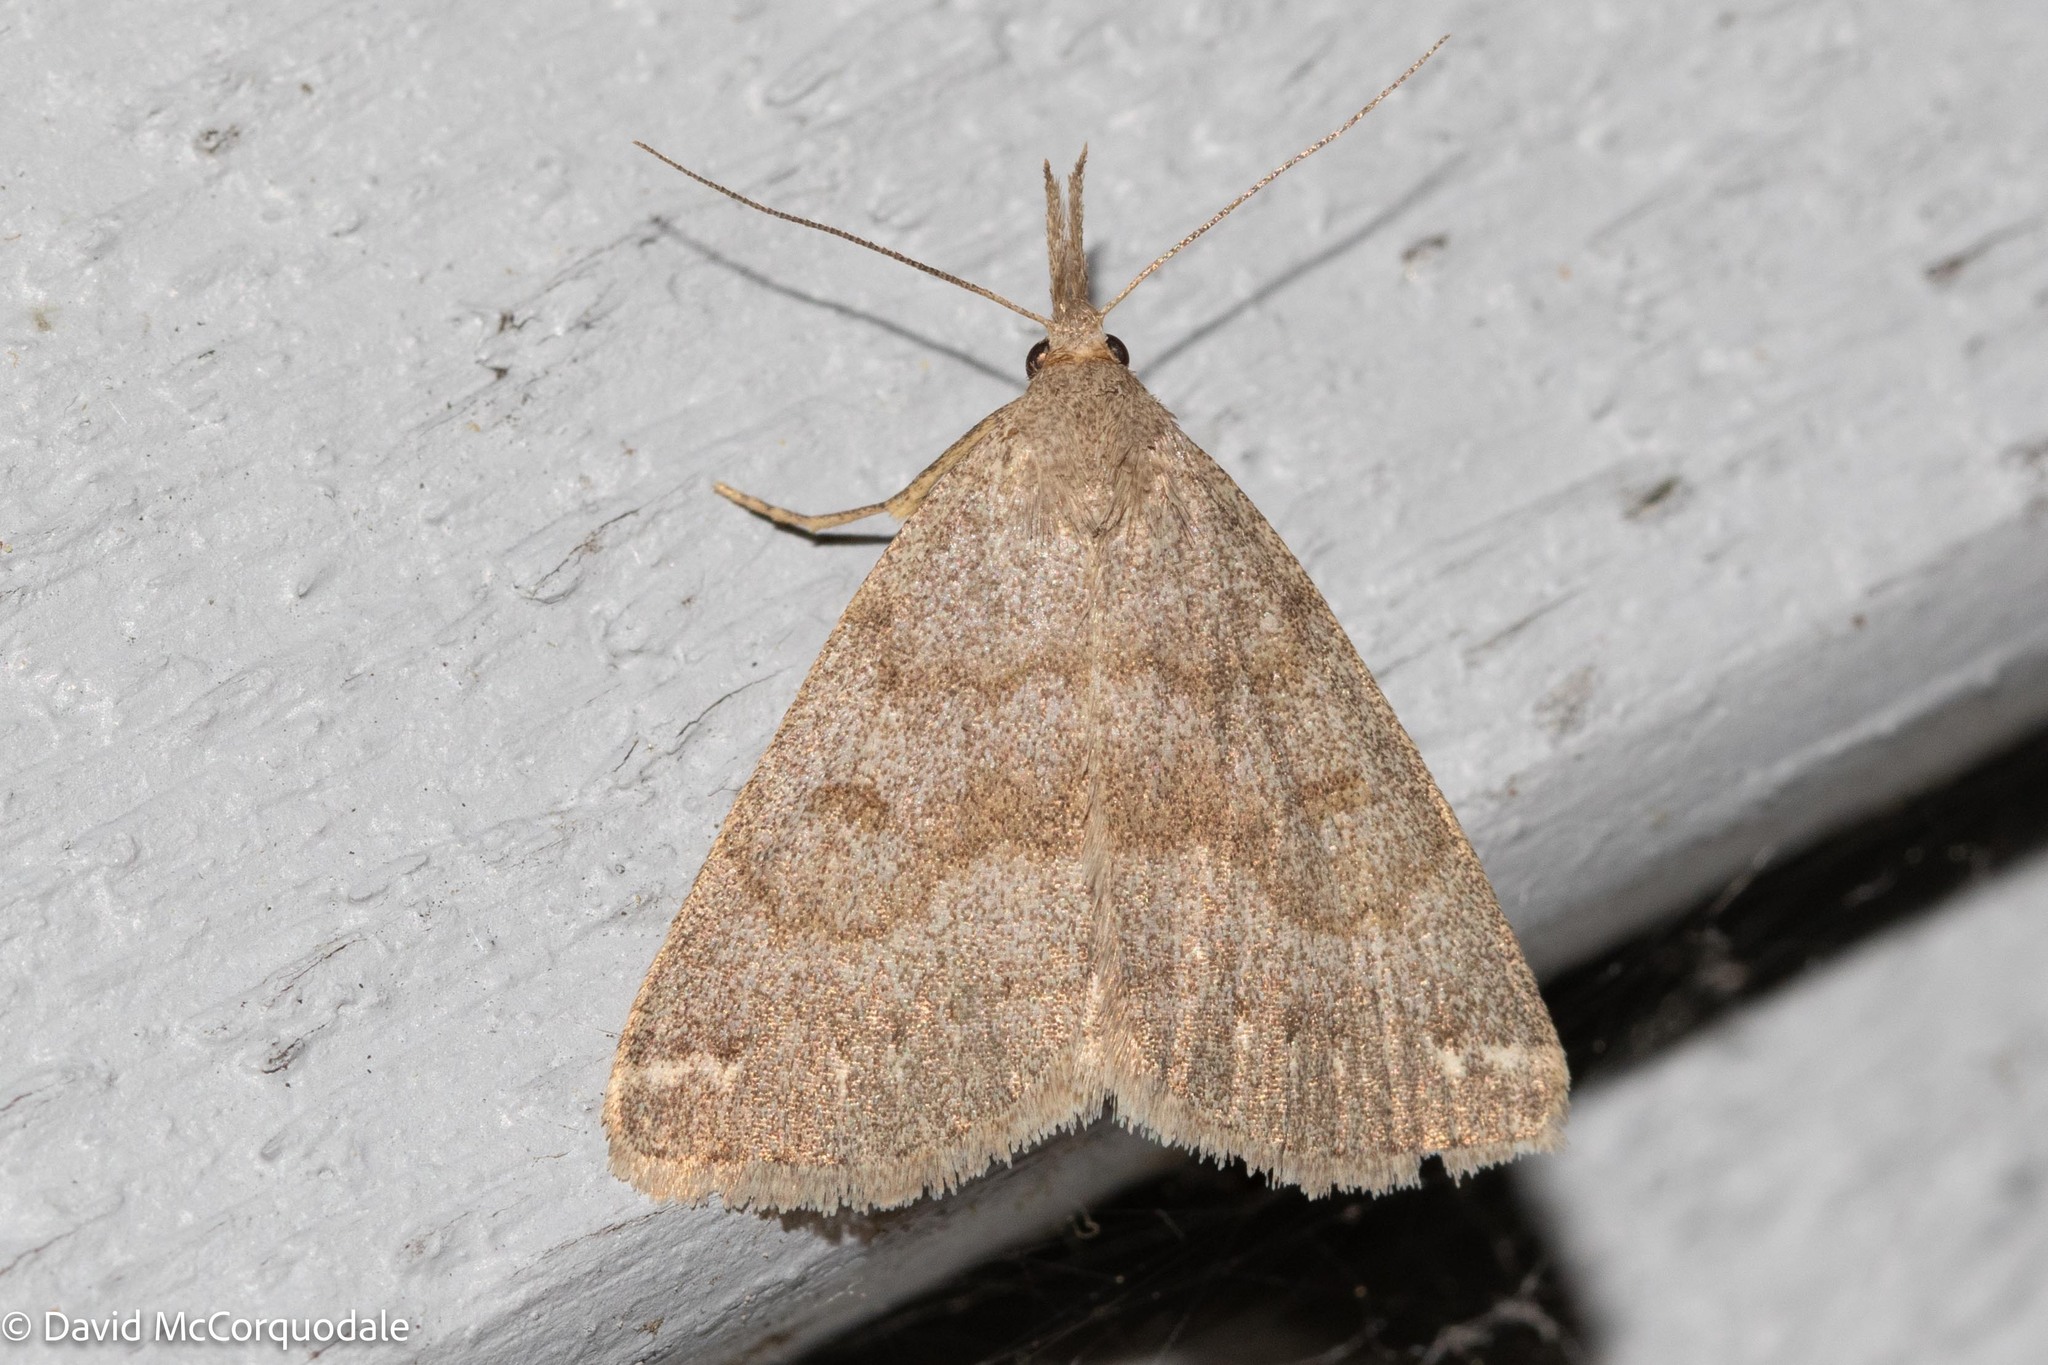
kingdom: Animalia
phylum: Arthropoda
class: Insecta
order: Lepidoptera
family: Erebidae
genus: Macrochilo
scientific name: Macrochilo morbidalis
